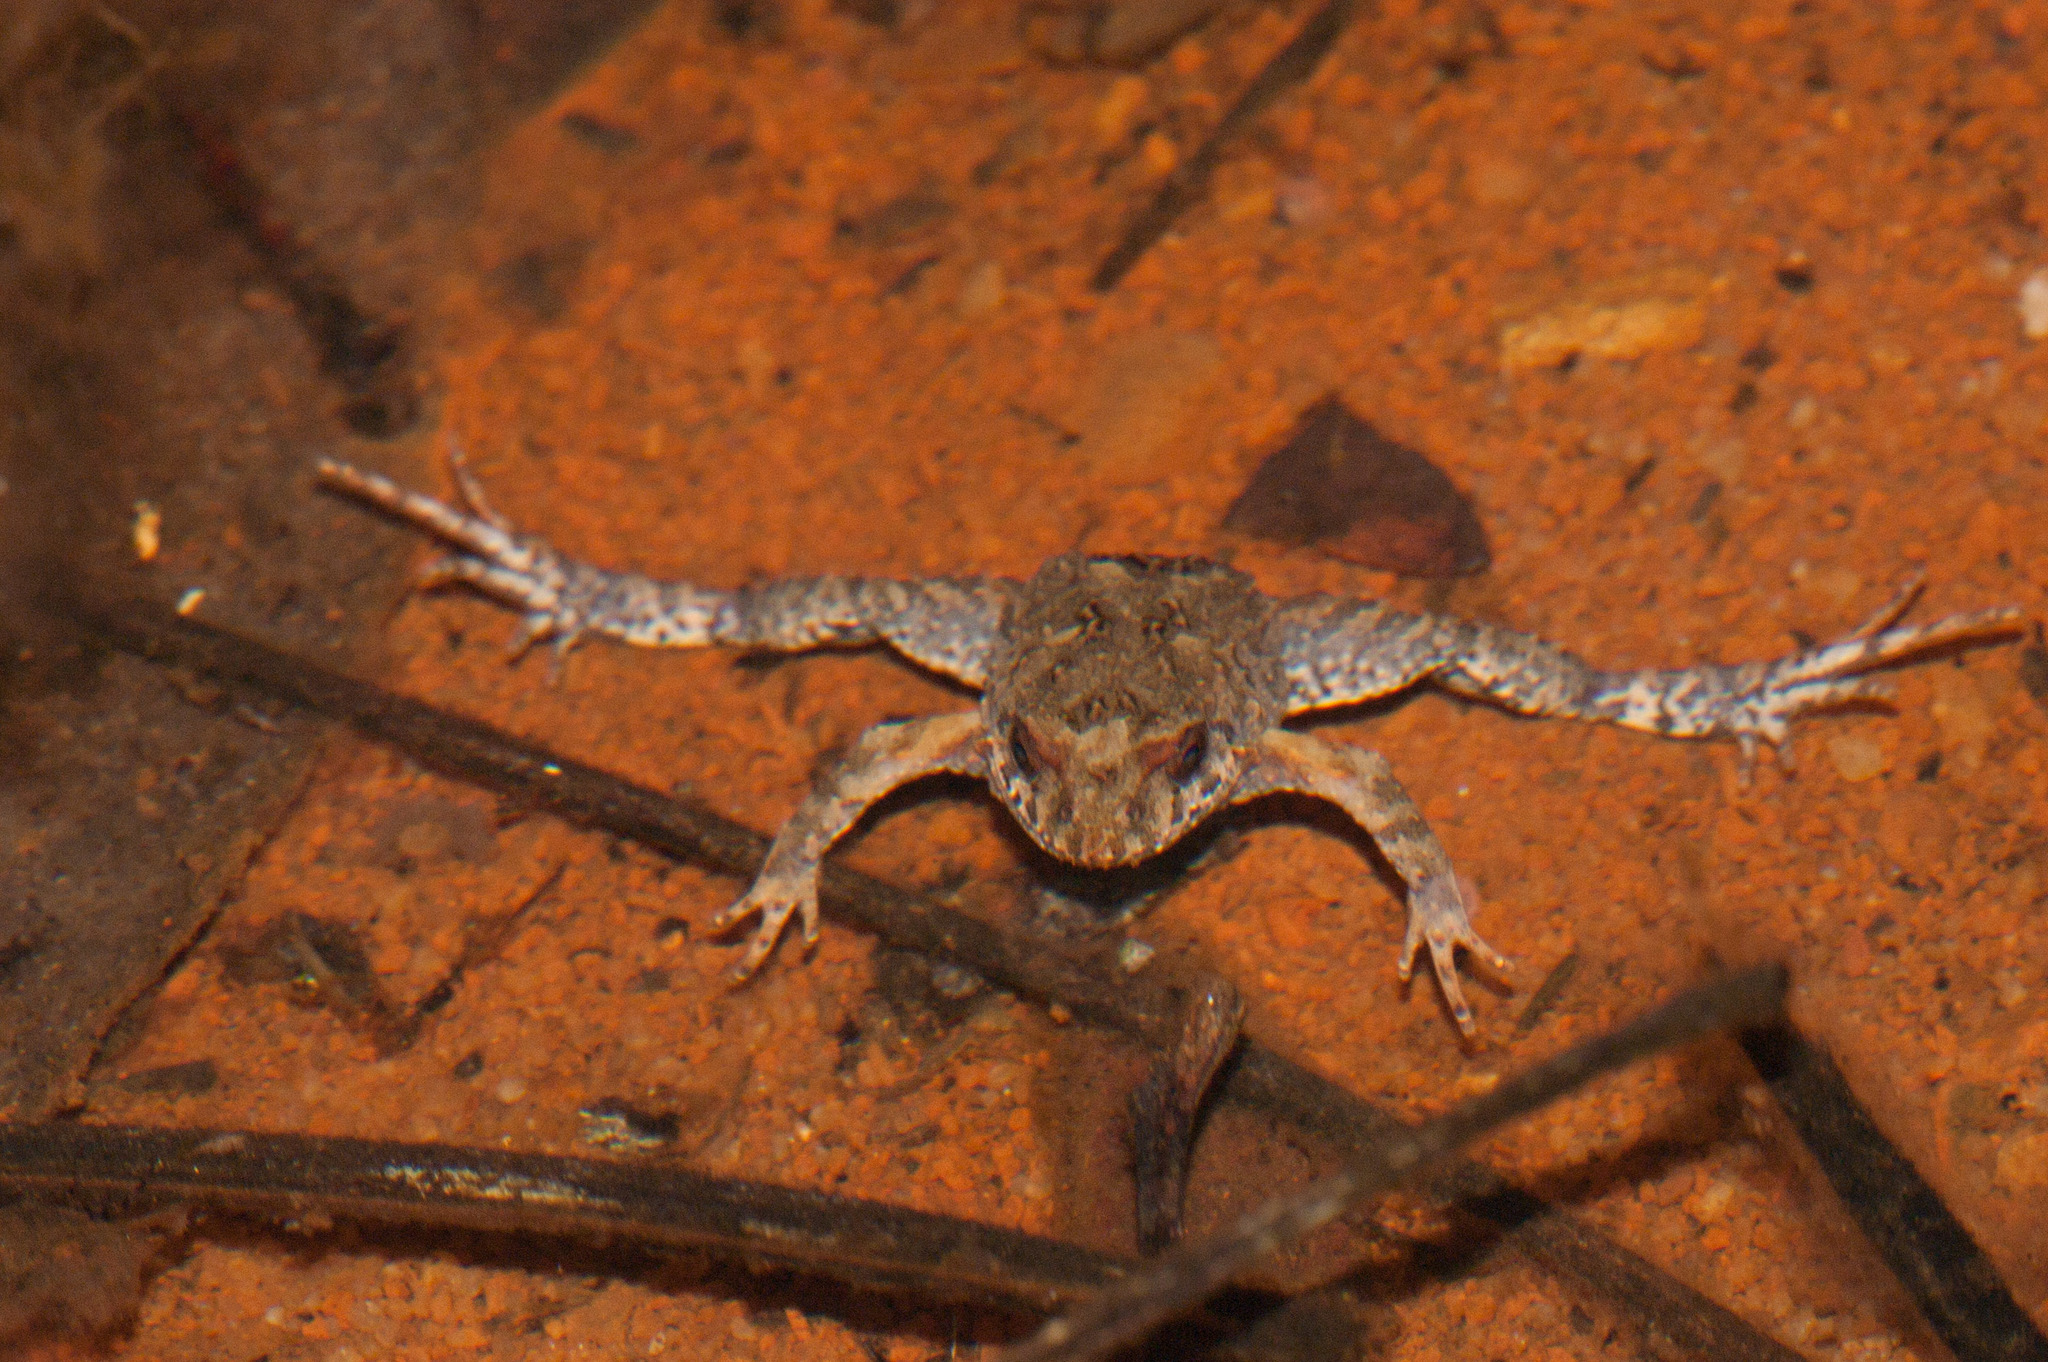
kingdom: Animalia
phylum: Chordata
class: Amphibia
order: Anura
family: Myobatrachidae
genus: Crinia
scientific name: Crinia signifera
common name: Brown froglet
